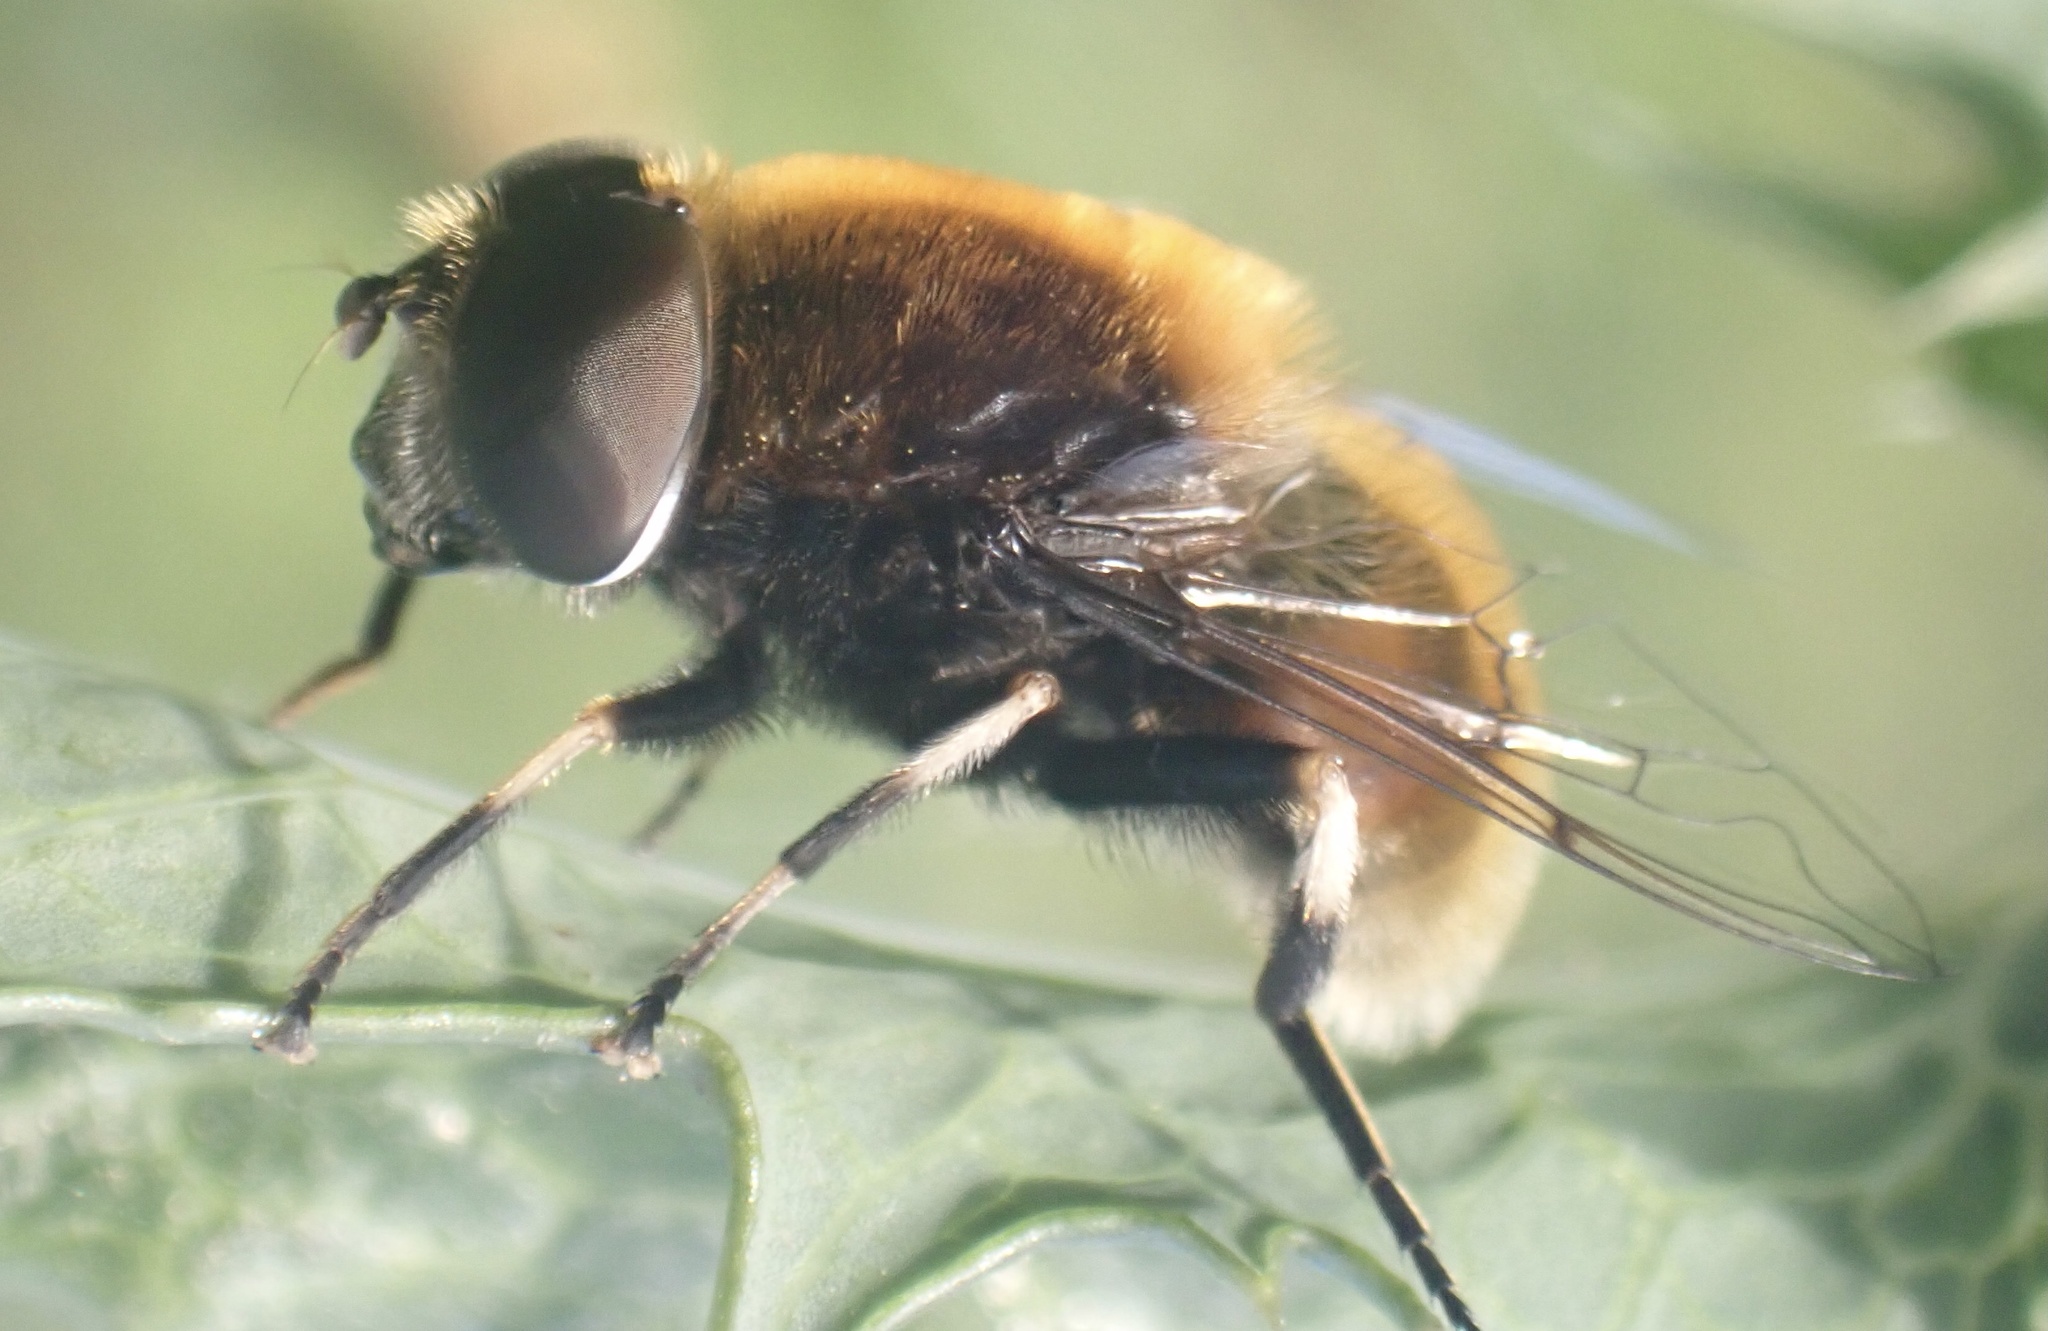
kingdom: Animalia
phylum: Arthropoda
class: Insecta
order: Diptera
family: Syrphidae
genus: Eristalis
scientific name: Eristalis intricaria
